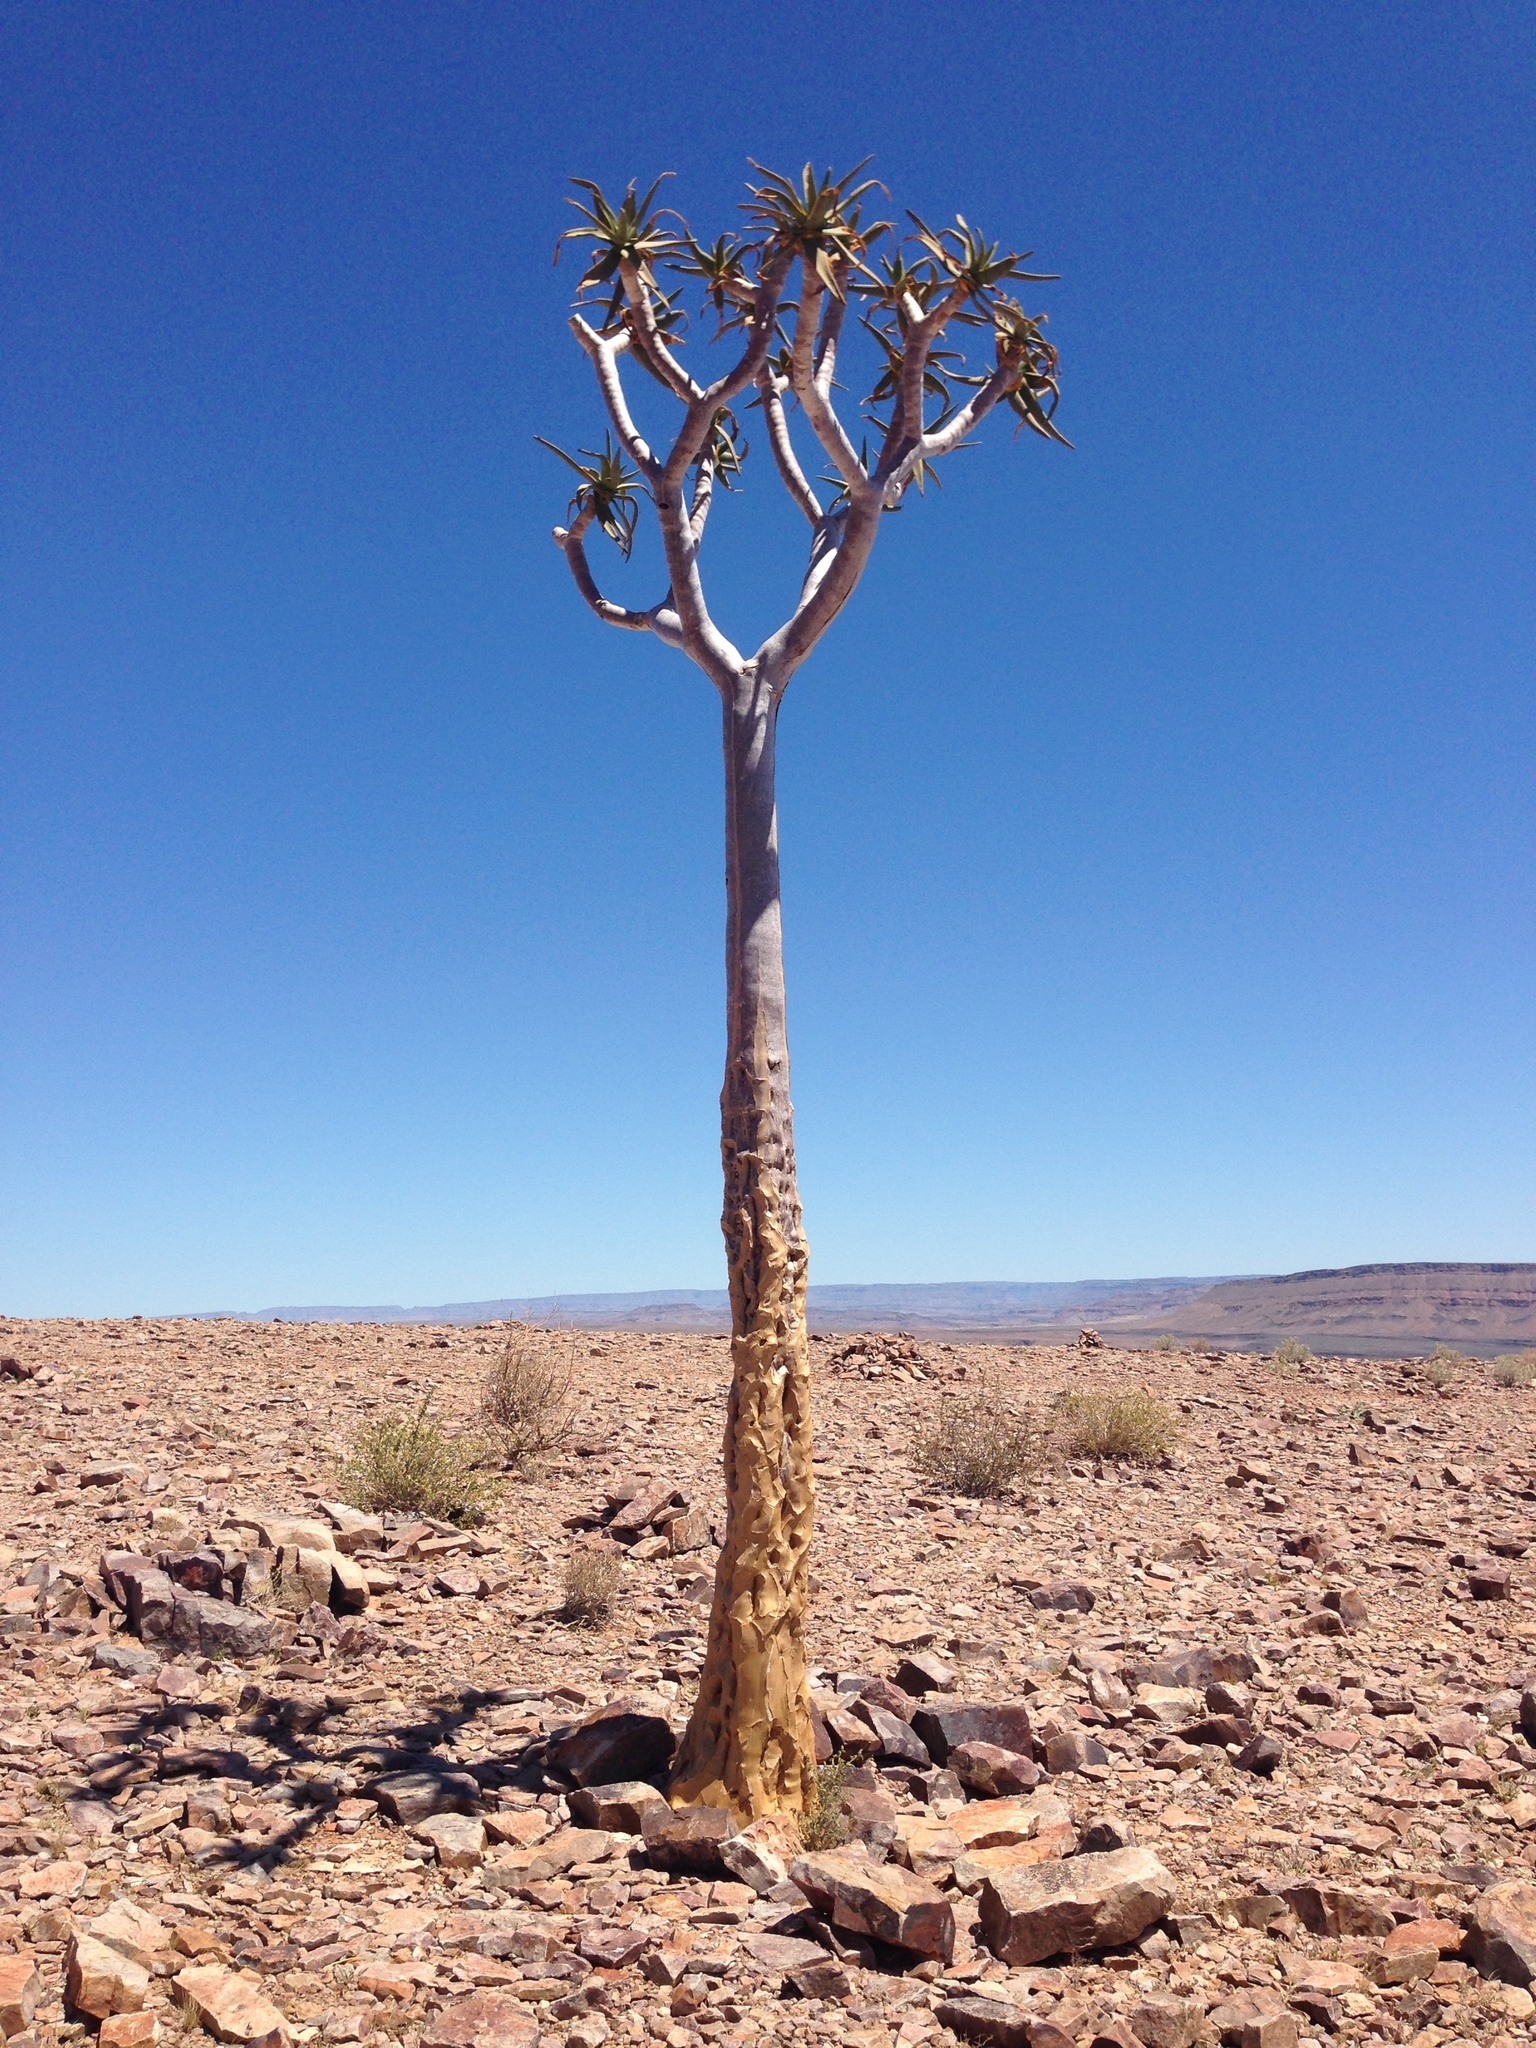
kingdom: Plantae
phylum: Tracheophyta
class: Liliopsida
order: Asparagales
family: Asphodelaceae
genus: Aloidendron
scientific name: Aloidendron dichotomum
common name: Quiver tree
